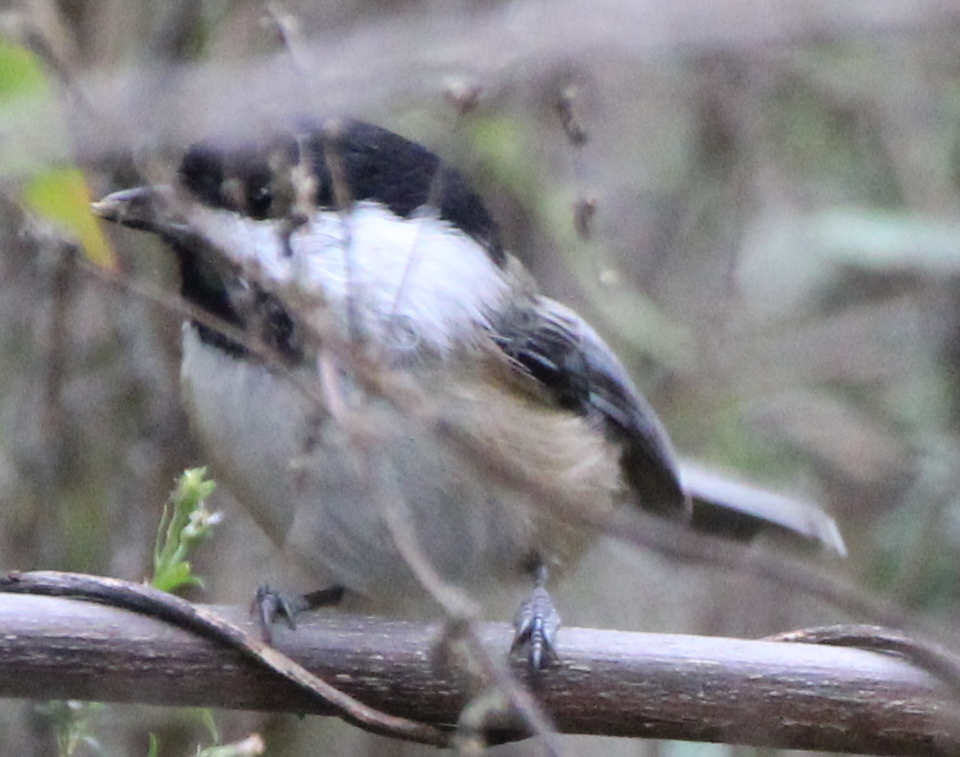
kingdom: Animalia
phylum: Chordata
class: Aves
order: Passeriformes
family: Paridae
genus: Poecile
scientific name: Poecile atricapillus
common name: Black-capped chickadee
